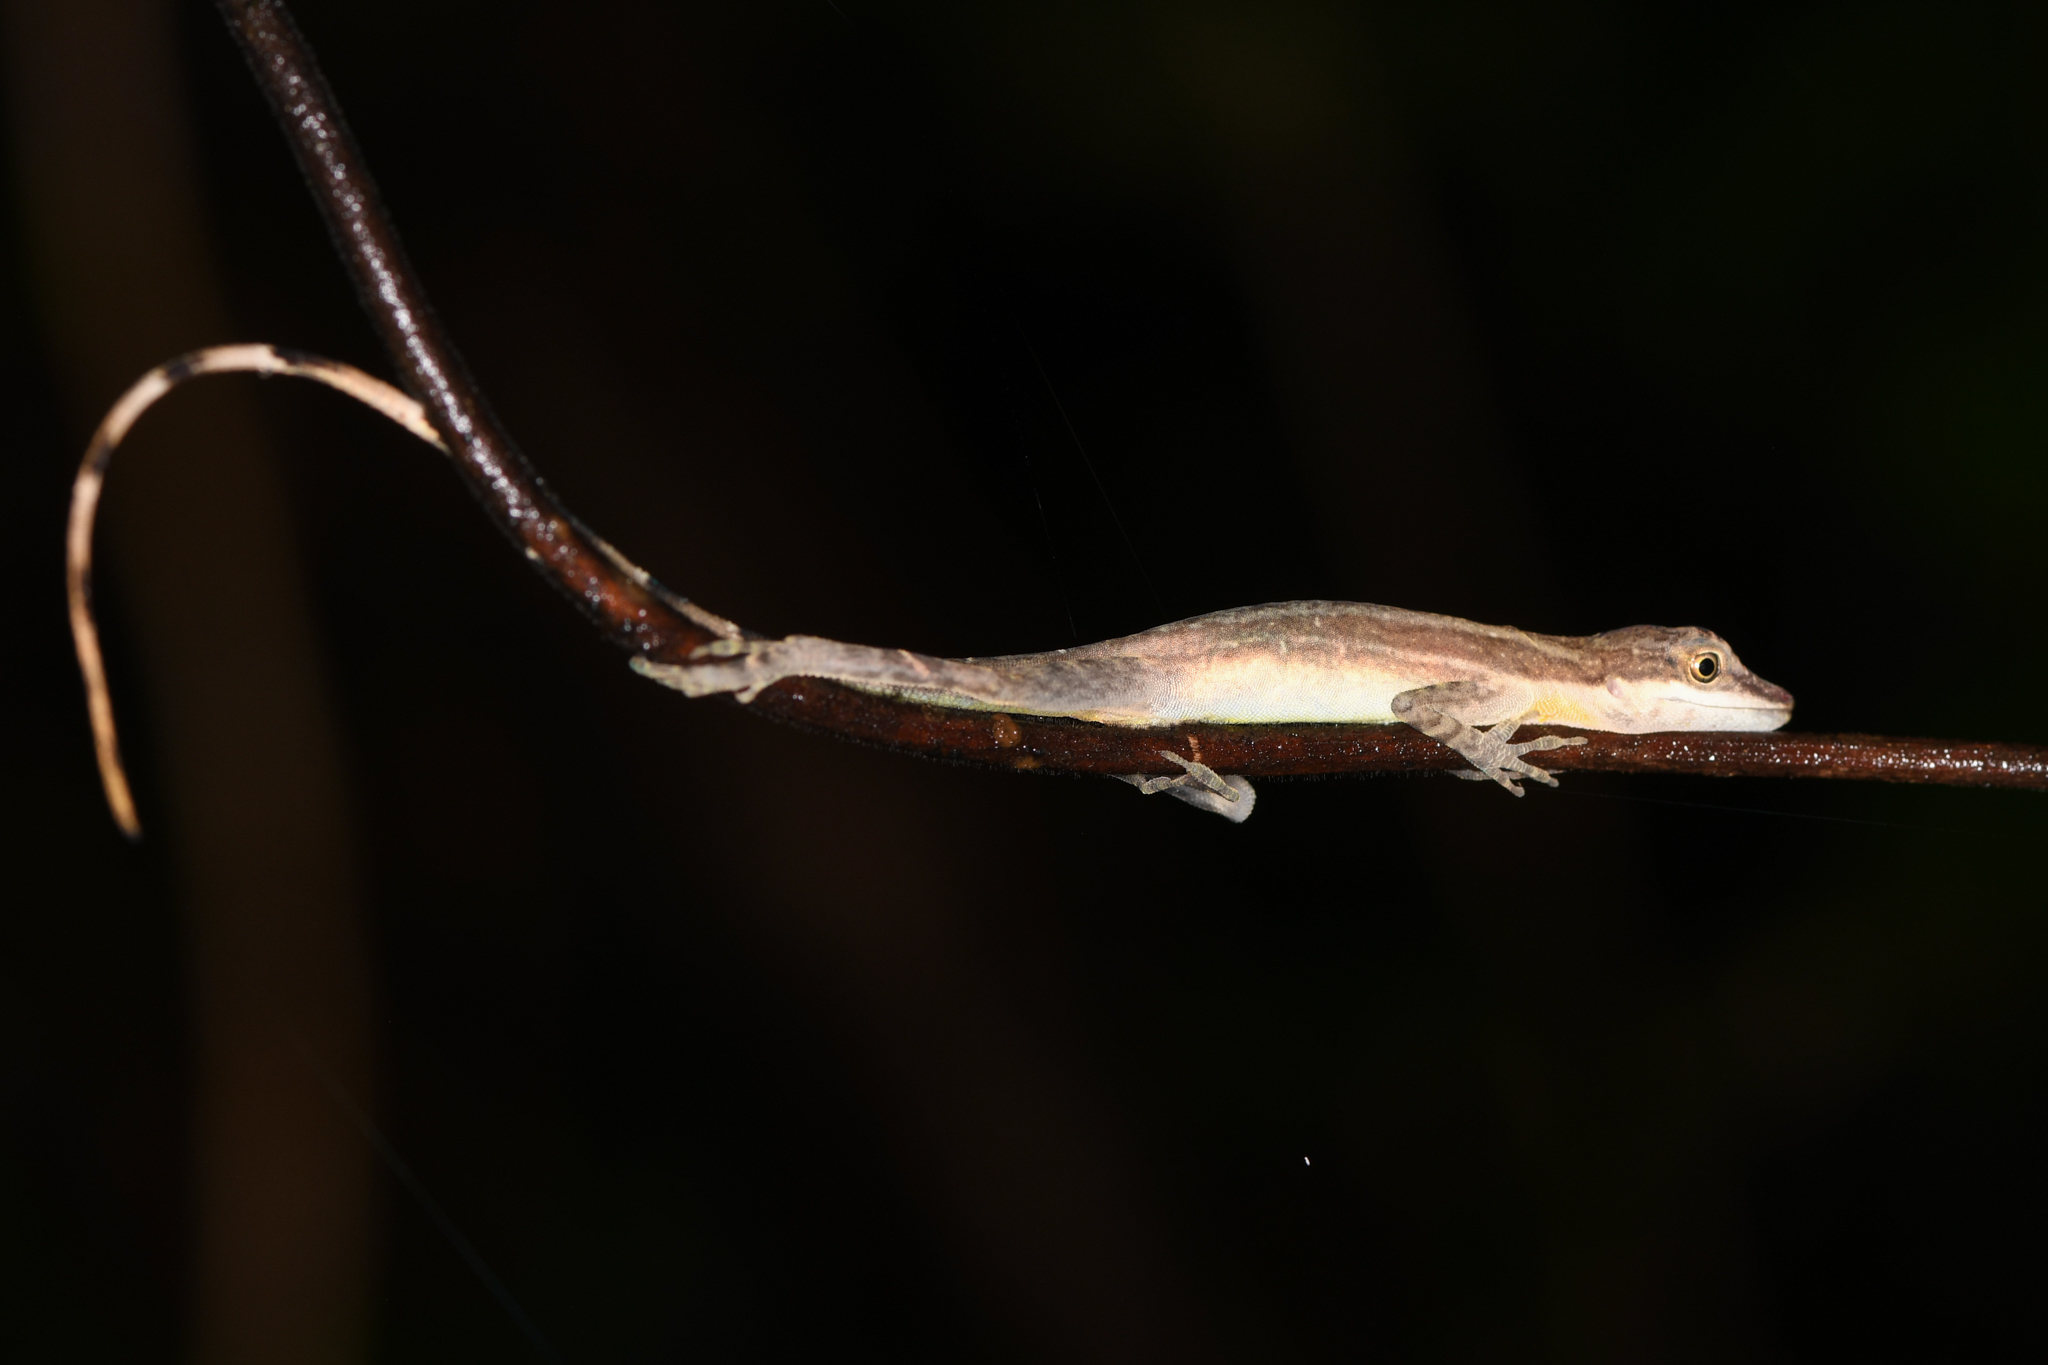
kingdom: Animalia
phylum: Chordata
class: Squamata
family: Dactyloidae
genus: Anolis
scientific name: Anolis limifrons
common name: Border anole
